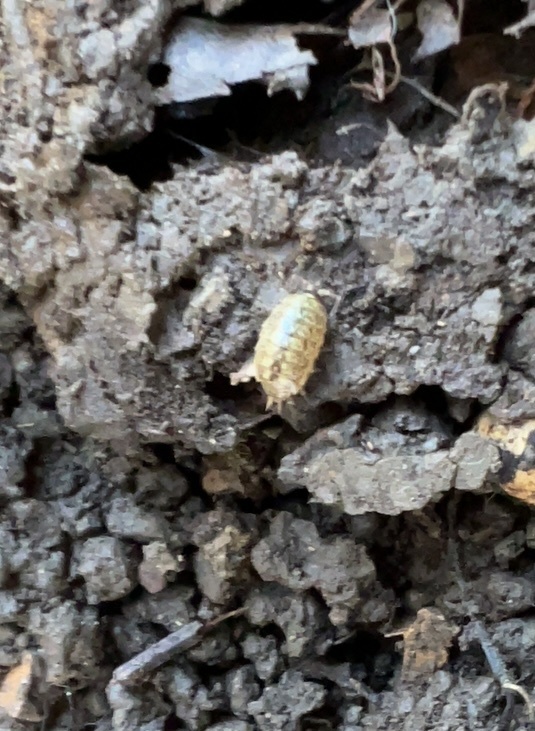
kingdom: Animalia
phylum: Arthropoda
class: Malacostraca
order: Isopoda
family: Philosciidae
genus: Philoscia
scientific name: Philoscia muscorum
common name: Common striped woodlouse
